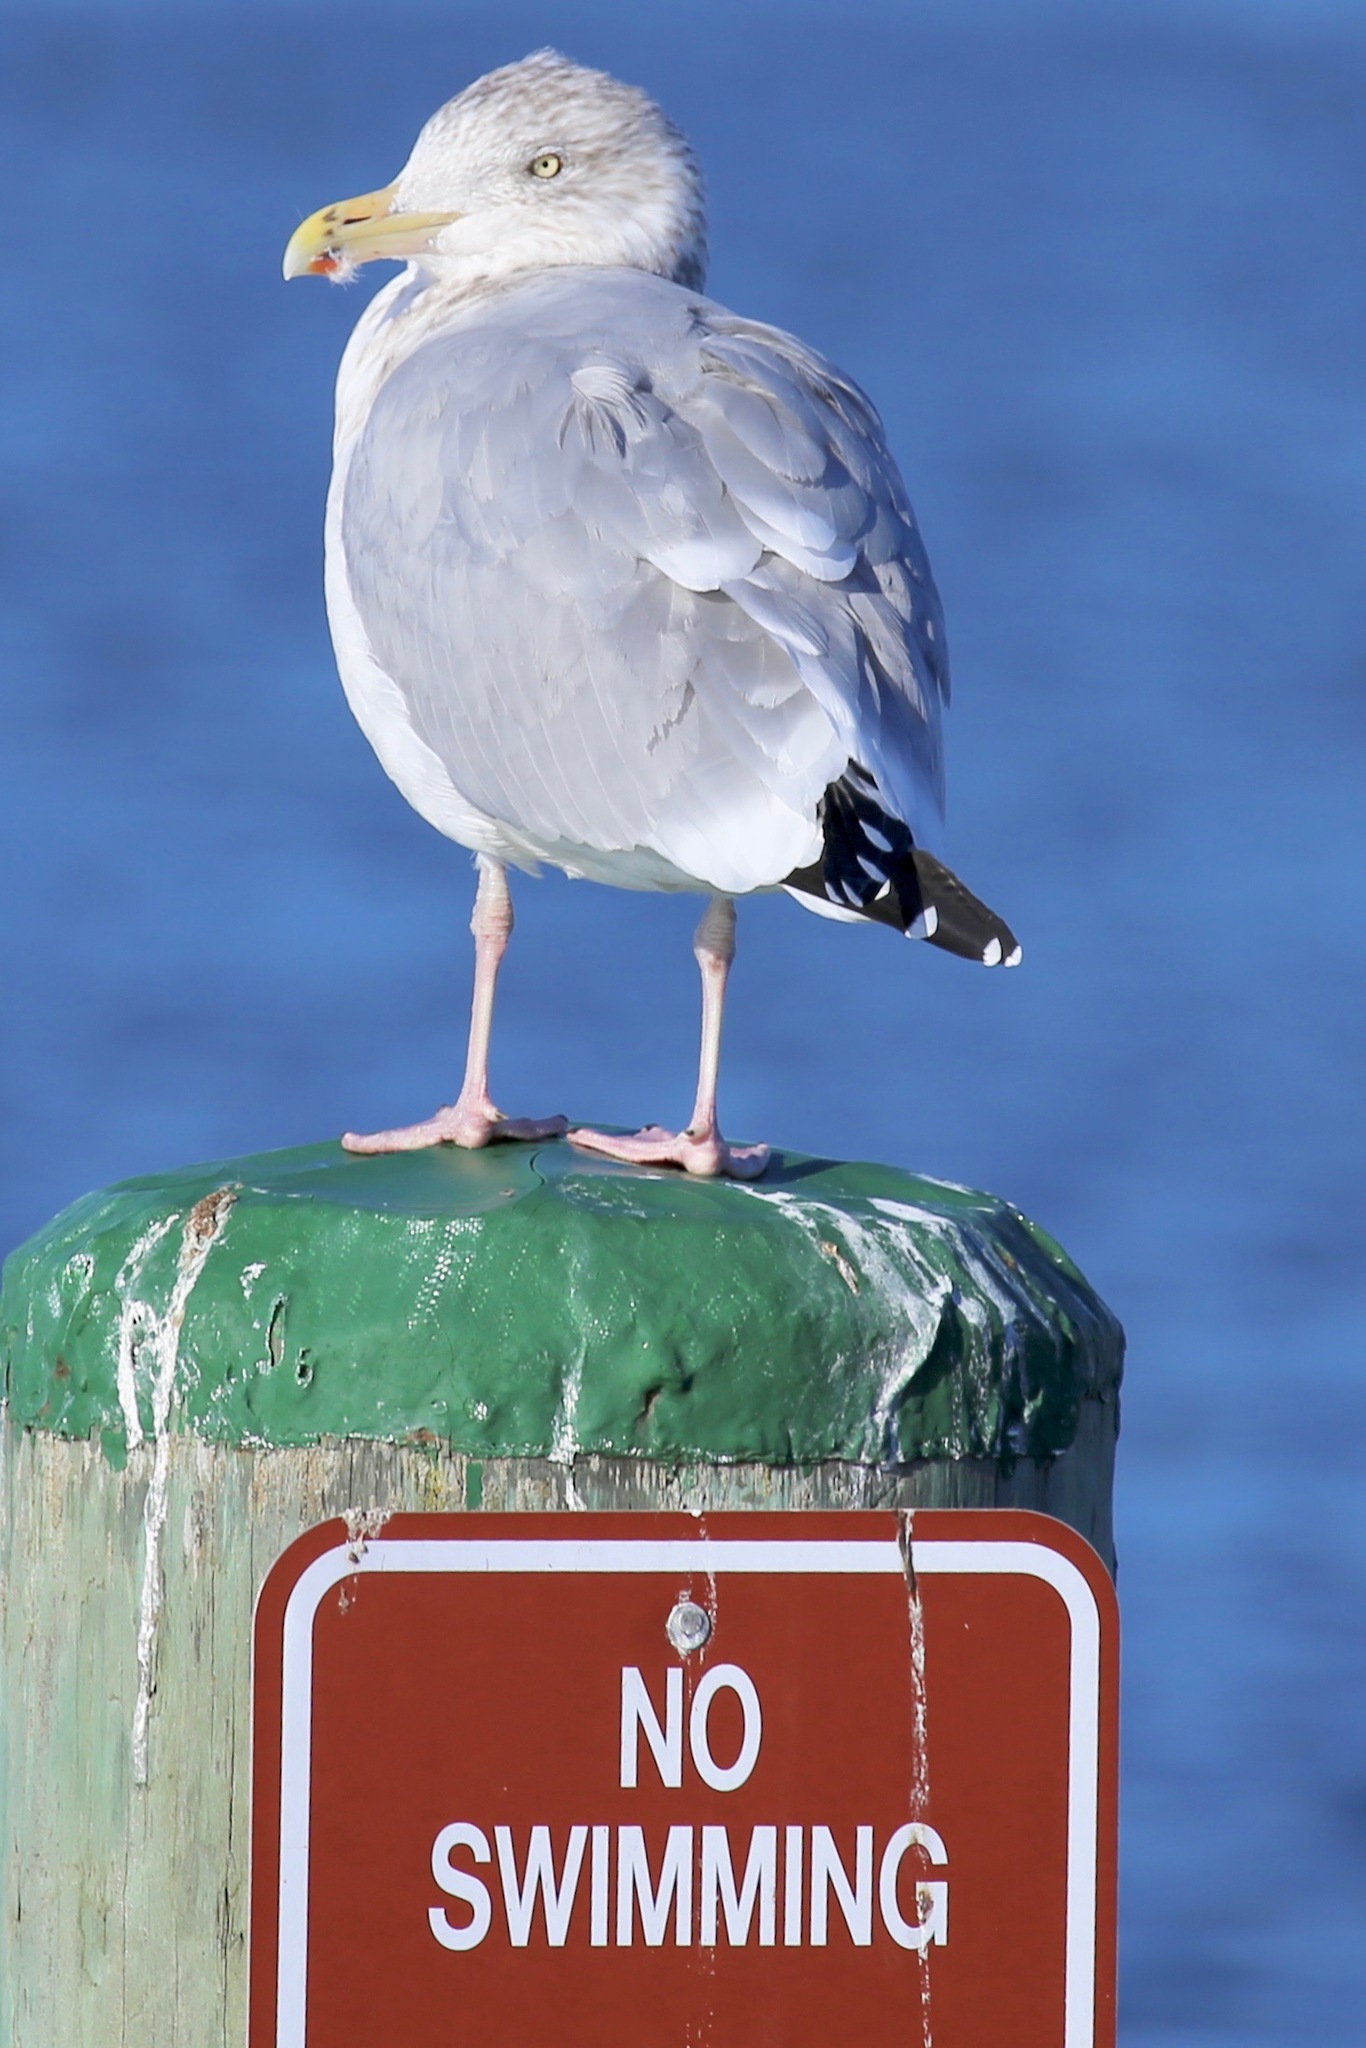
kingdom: Animalia
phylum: Chordata
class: Aves
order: Charadriiformes
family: Laridae
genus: Larus
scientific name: Larus argentatus
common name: Herring gull
